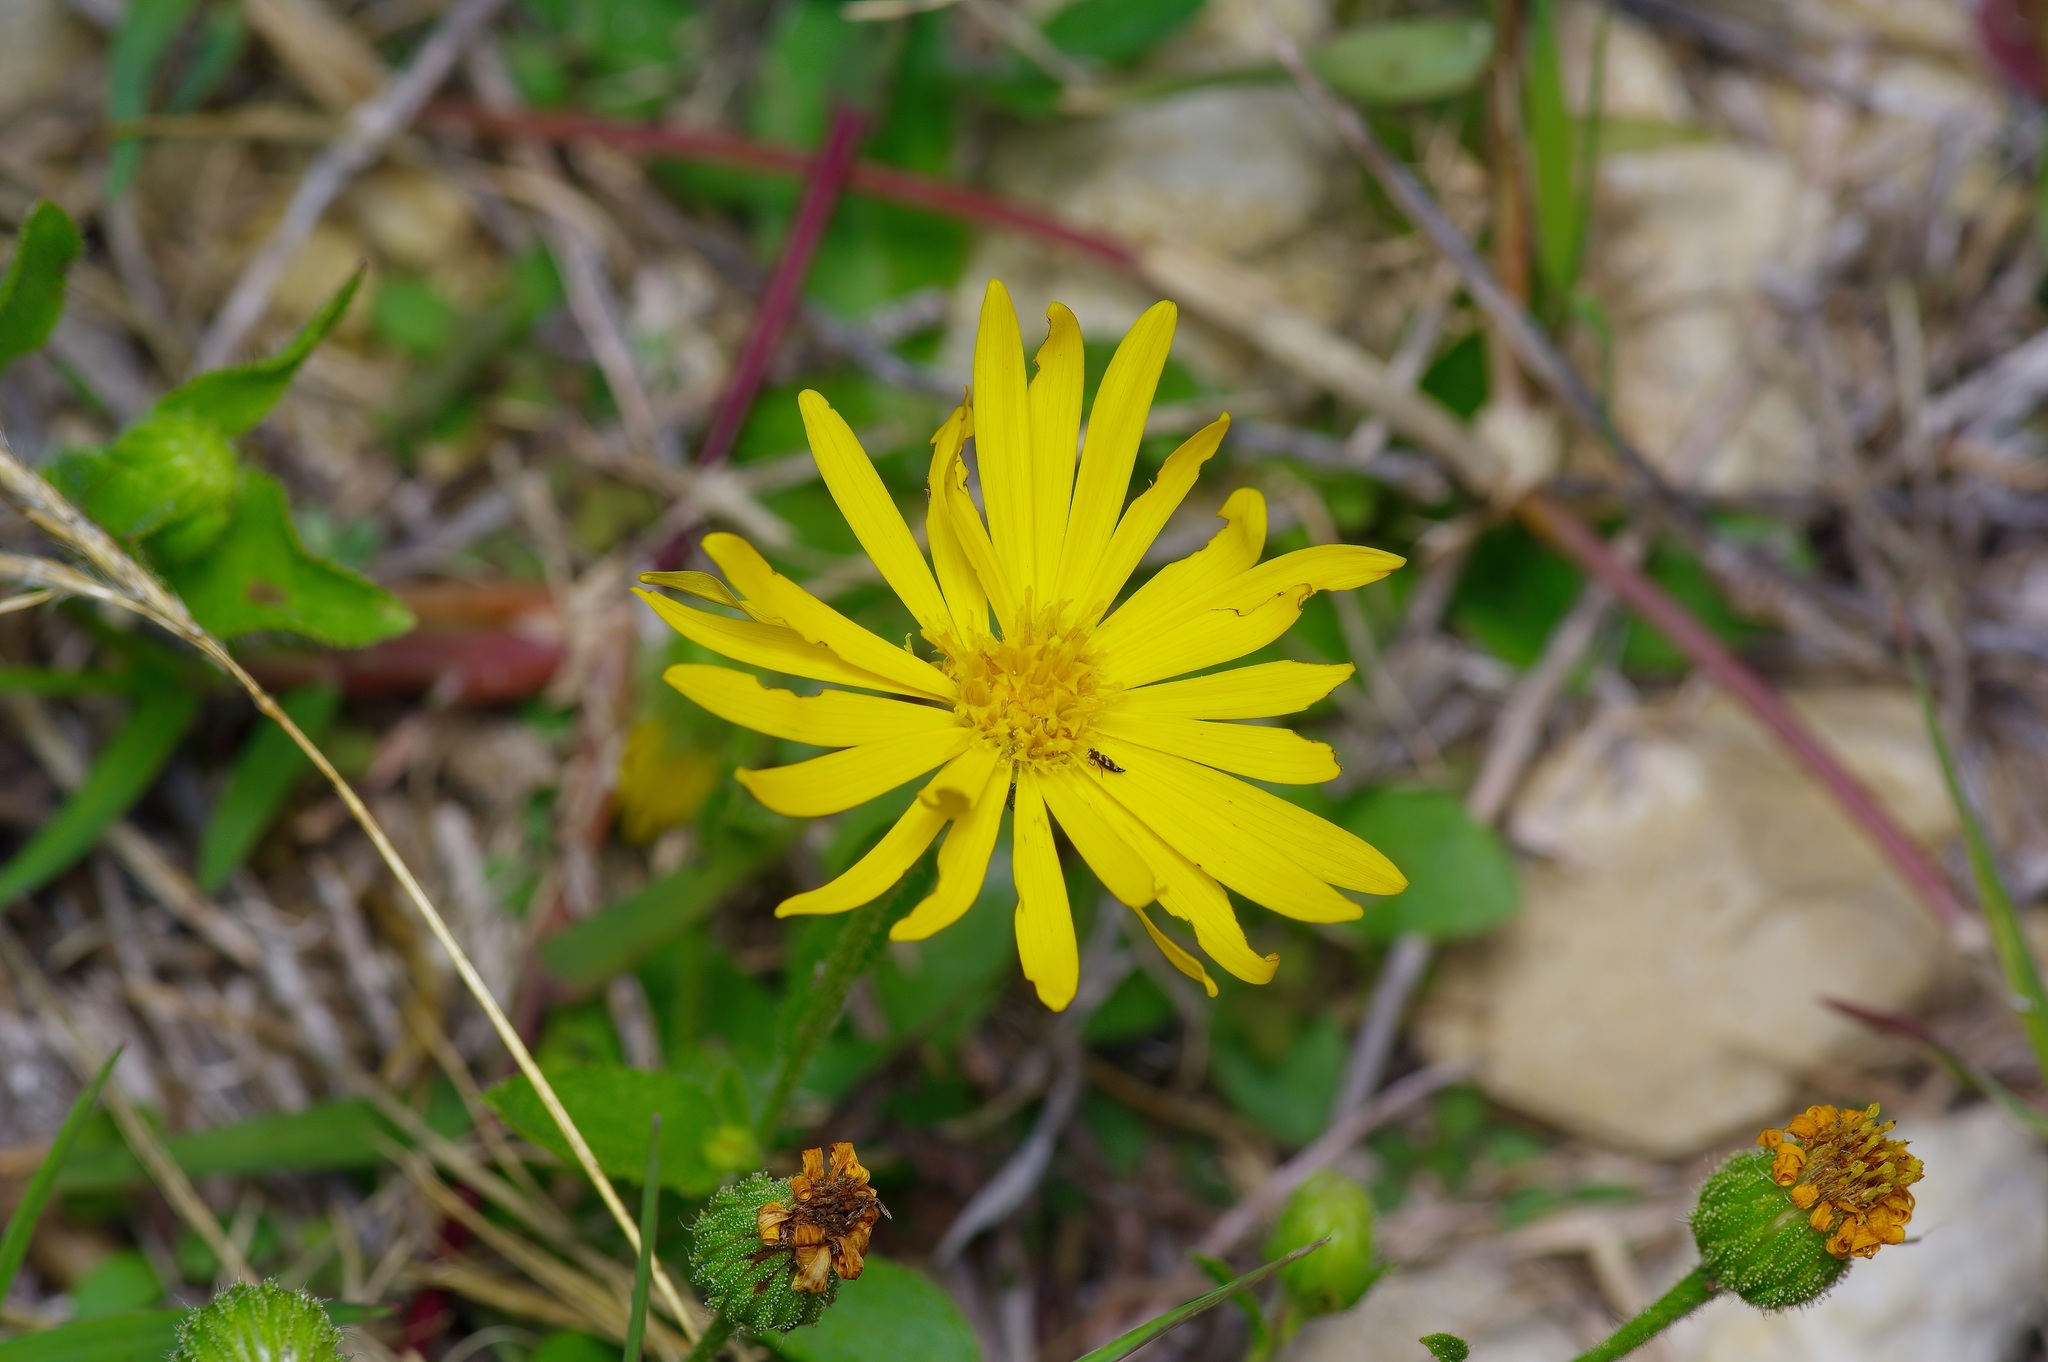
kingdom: Plantae
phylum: Tracheophyta
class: Magnoliopsida
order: Asterales
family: Asteraceae
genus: Heterotheca
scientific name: Heterotheca subaxillaris
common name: Camphorweed
